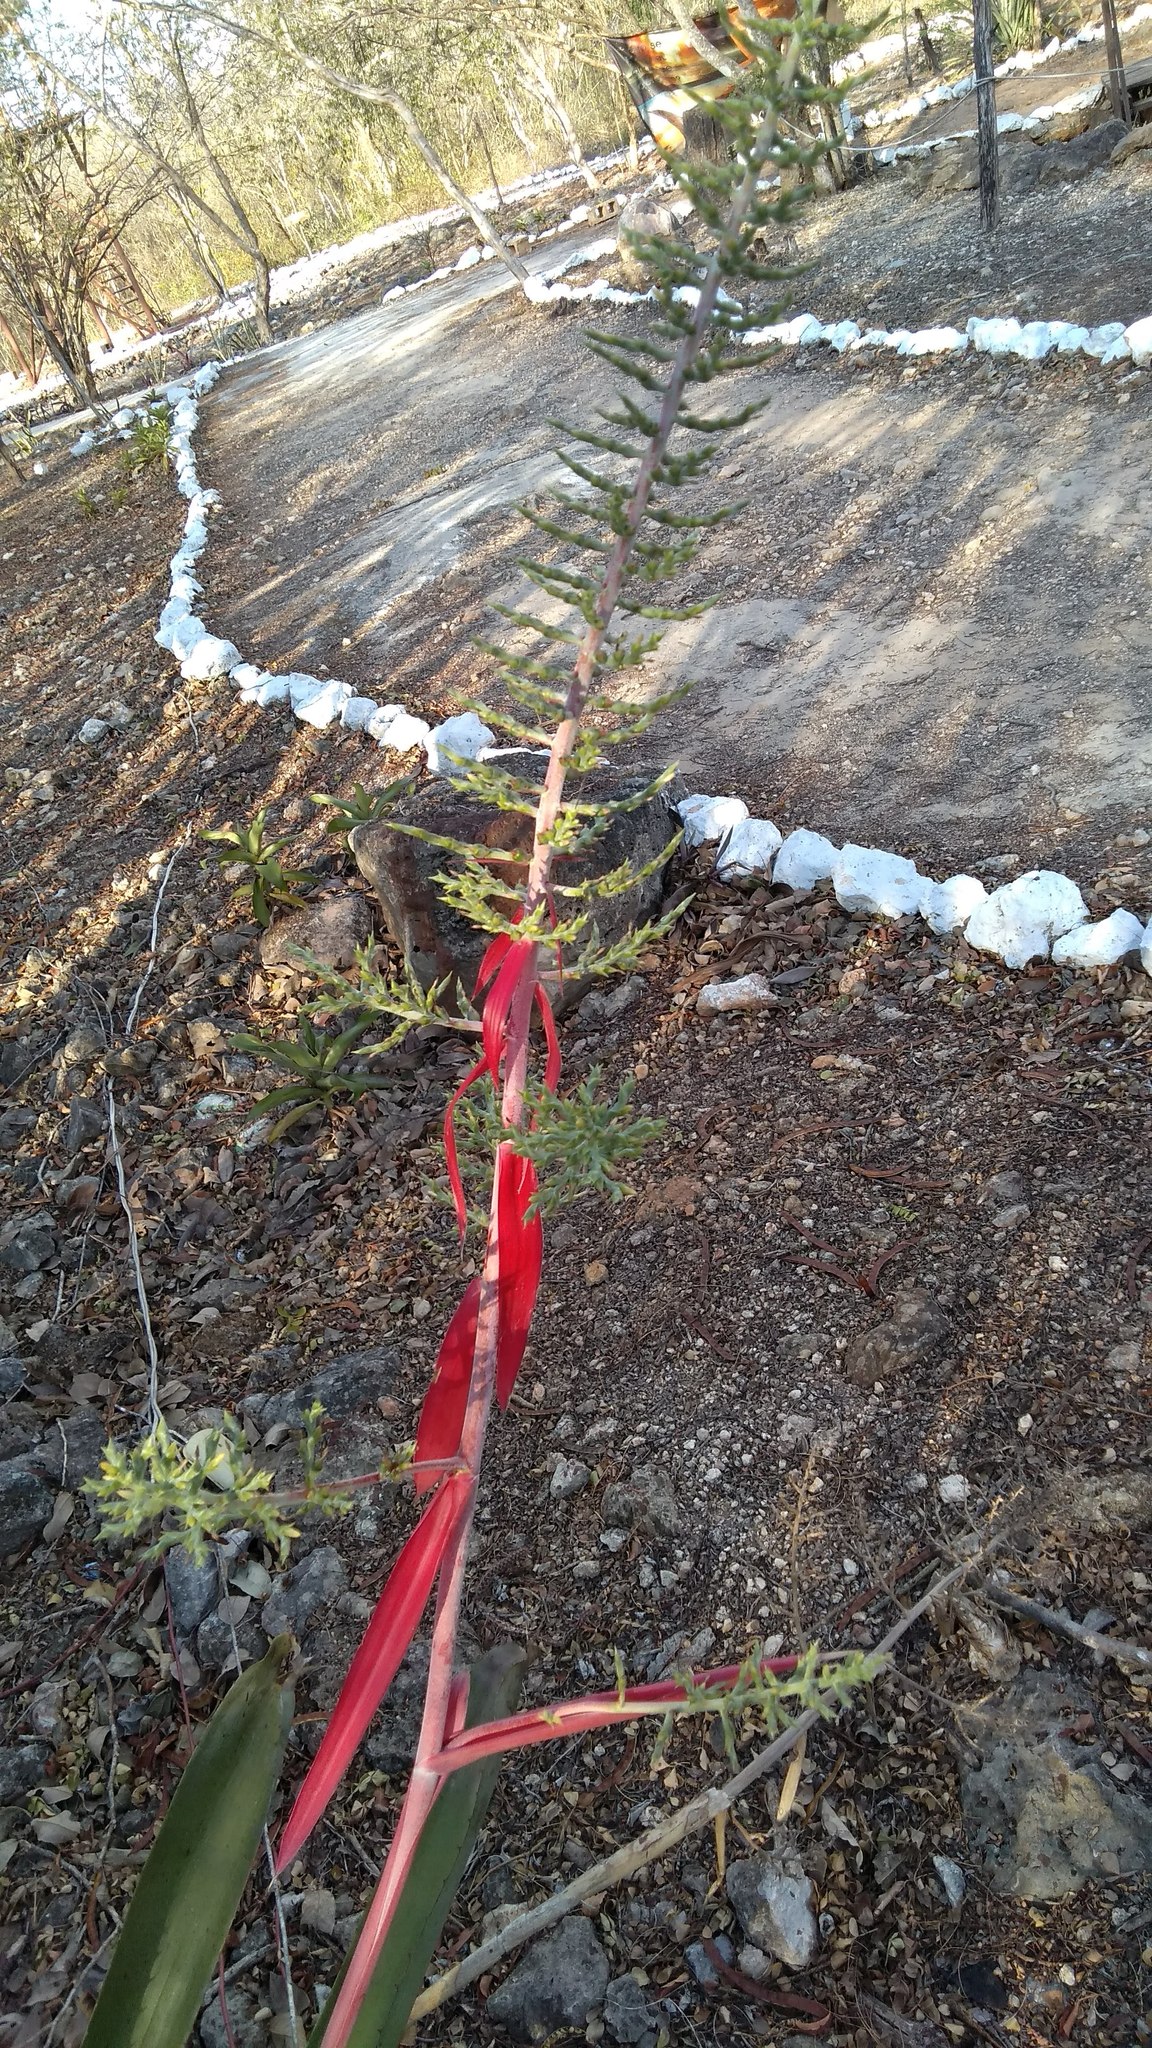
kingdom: Plantae
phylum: Tracheophyta
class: Liliopsida
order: Poales
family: Bromeliaceae
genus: Aechmea
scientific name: Aechmea bracteata
